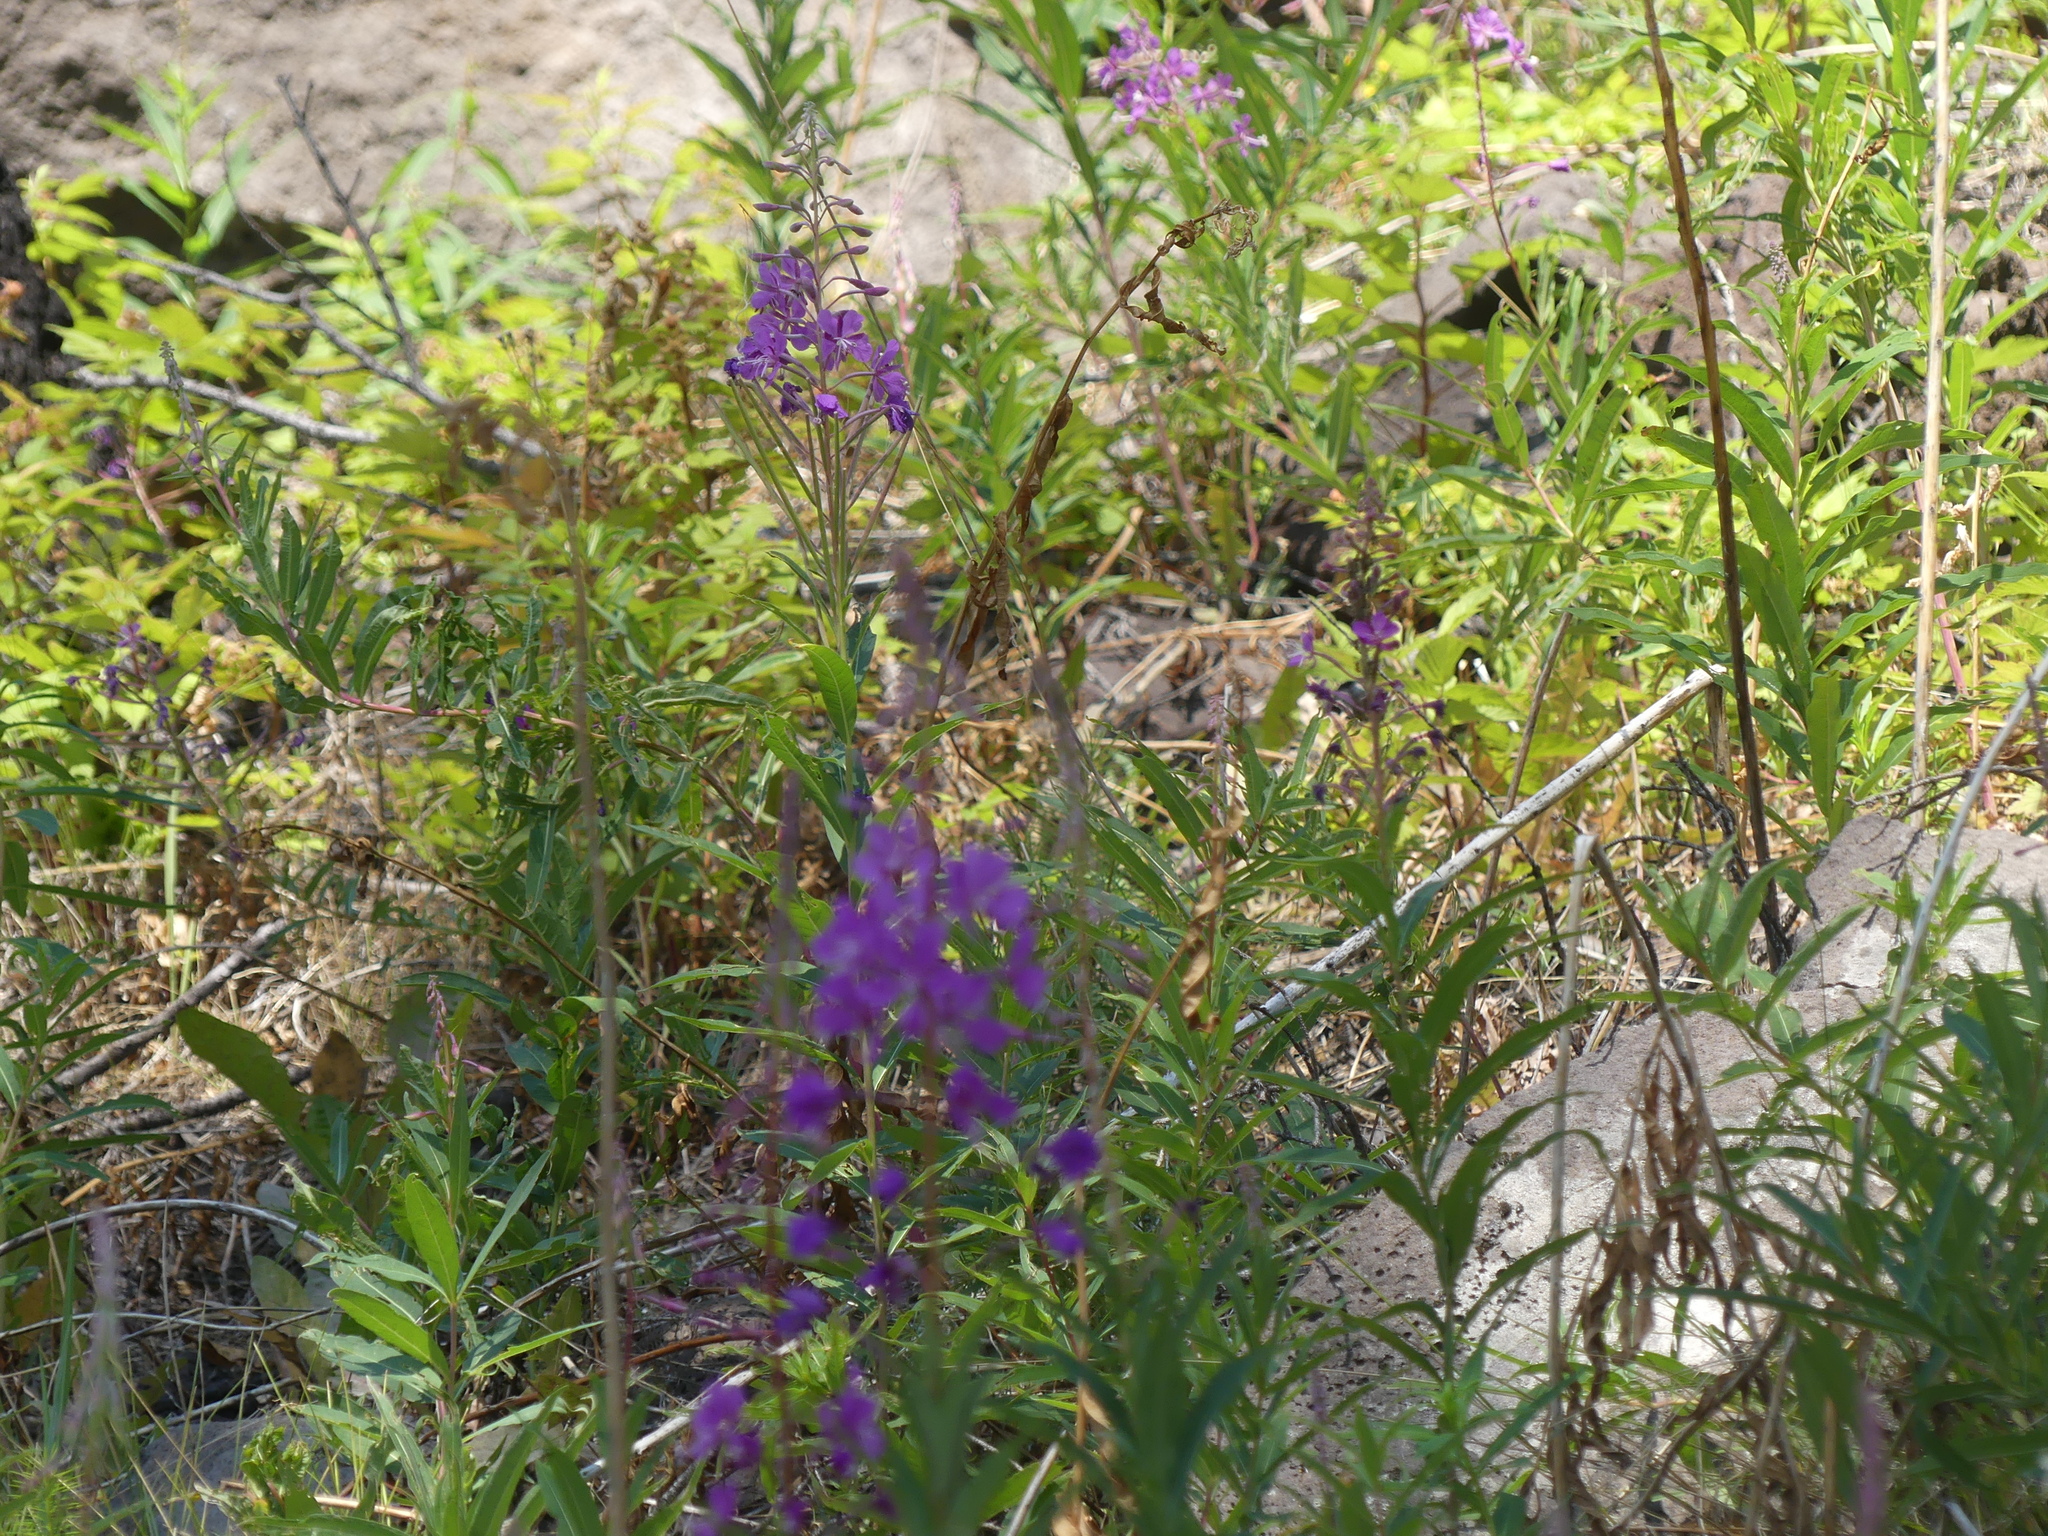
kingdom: Plantae
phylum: Tracheophyta
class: Magnoliopsida
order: Myrtales
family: Onagraceae
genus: Chamaenerion
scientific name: Chamaenerion angustifolium
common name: Fireweed
